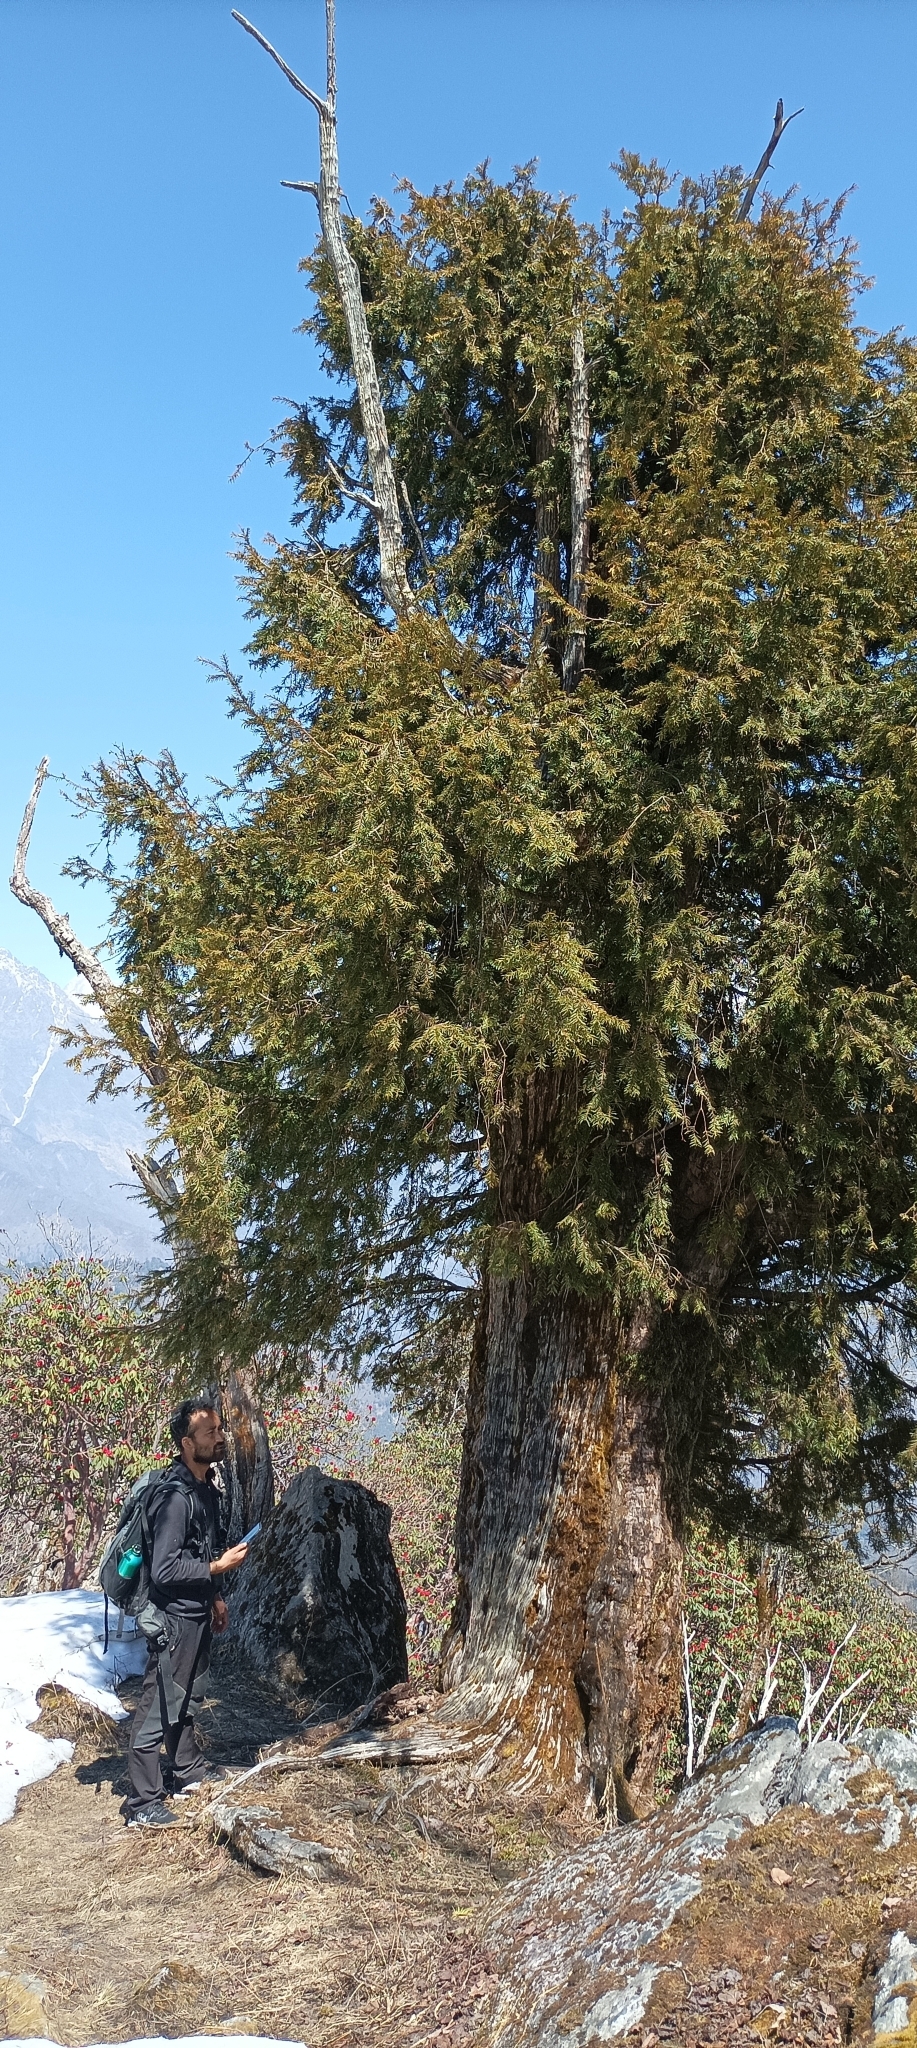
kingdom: Plantae
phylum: Tracheophyta
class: Pinopsida
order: Pinales
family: Taxaceae
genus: Taxus
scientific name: Taxus wallichiana
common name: Himalayan yew
